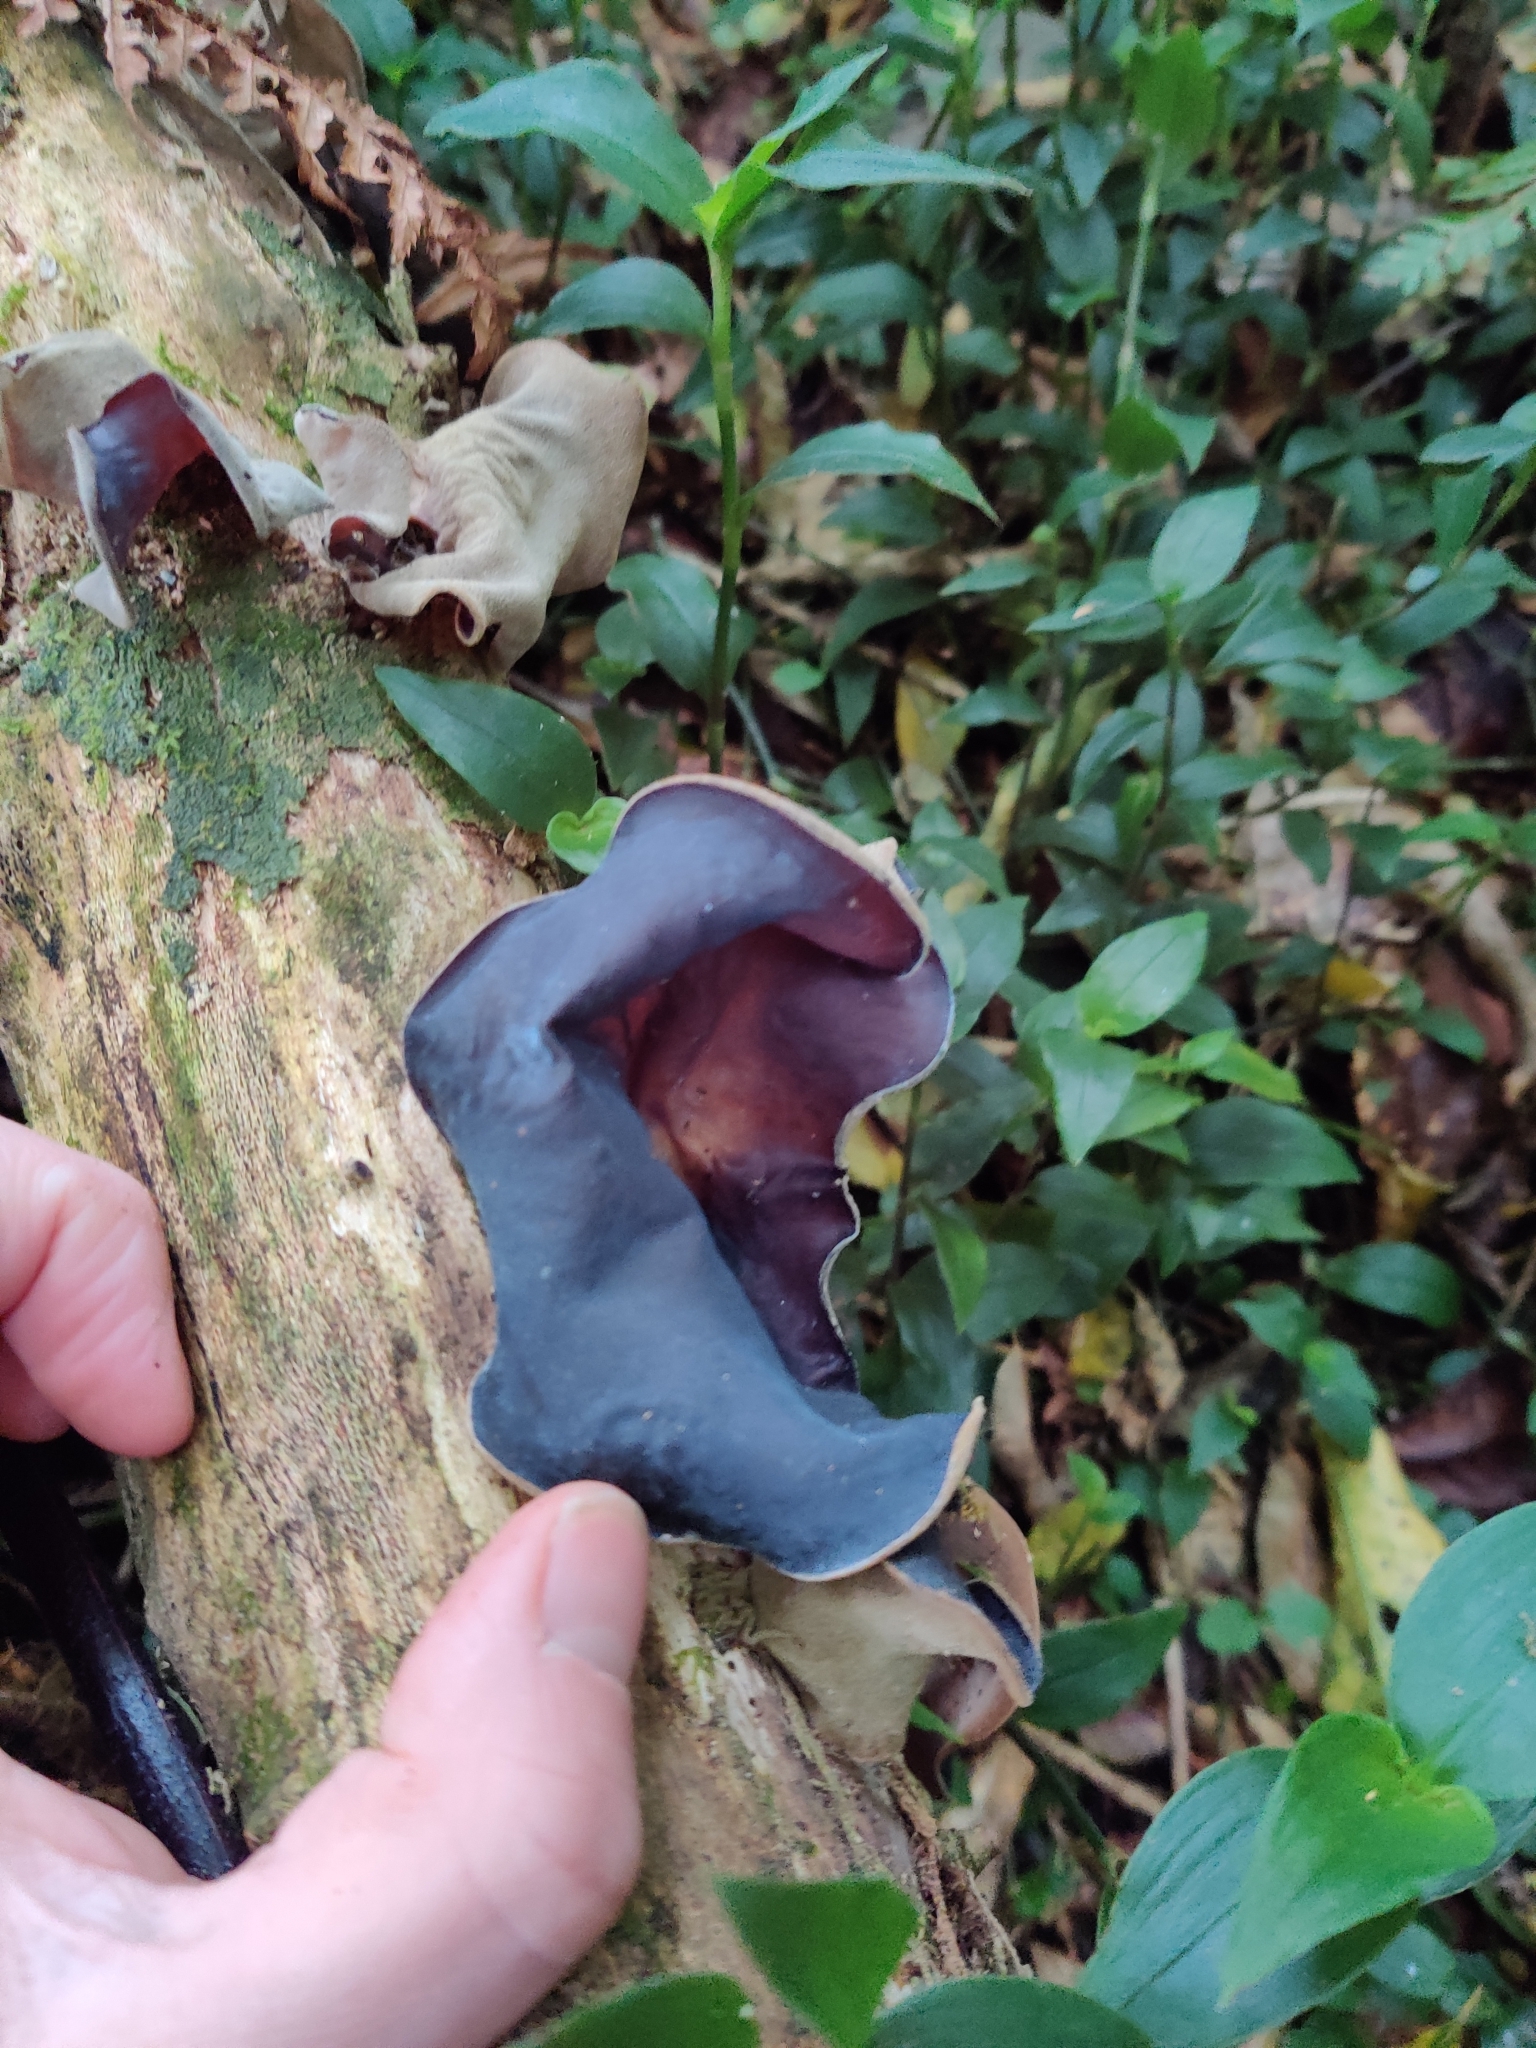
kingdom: Fungi
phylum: Basidiomycota
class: Agaricomycetes
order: Auriculariales
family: Auriculariaceae
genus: Auricularia
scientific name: Auricularia cornea
